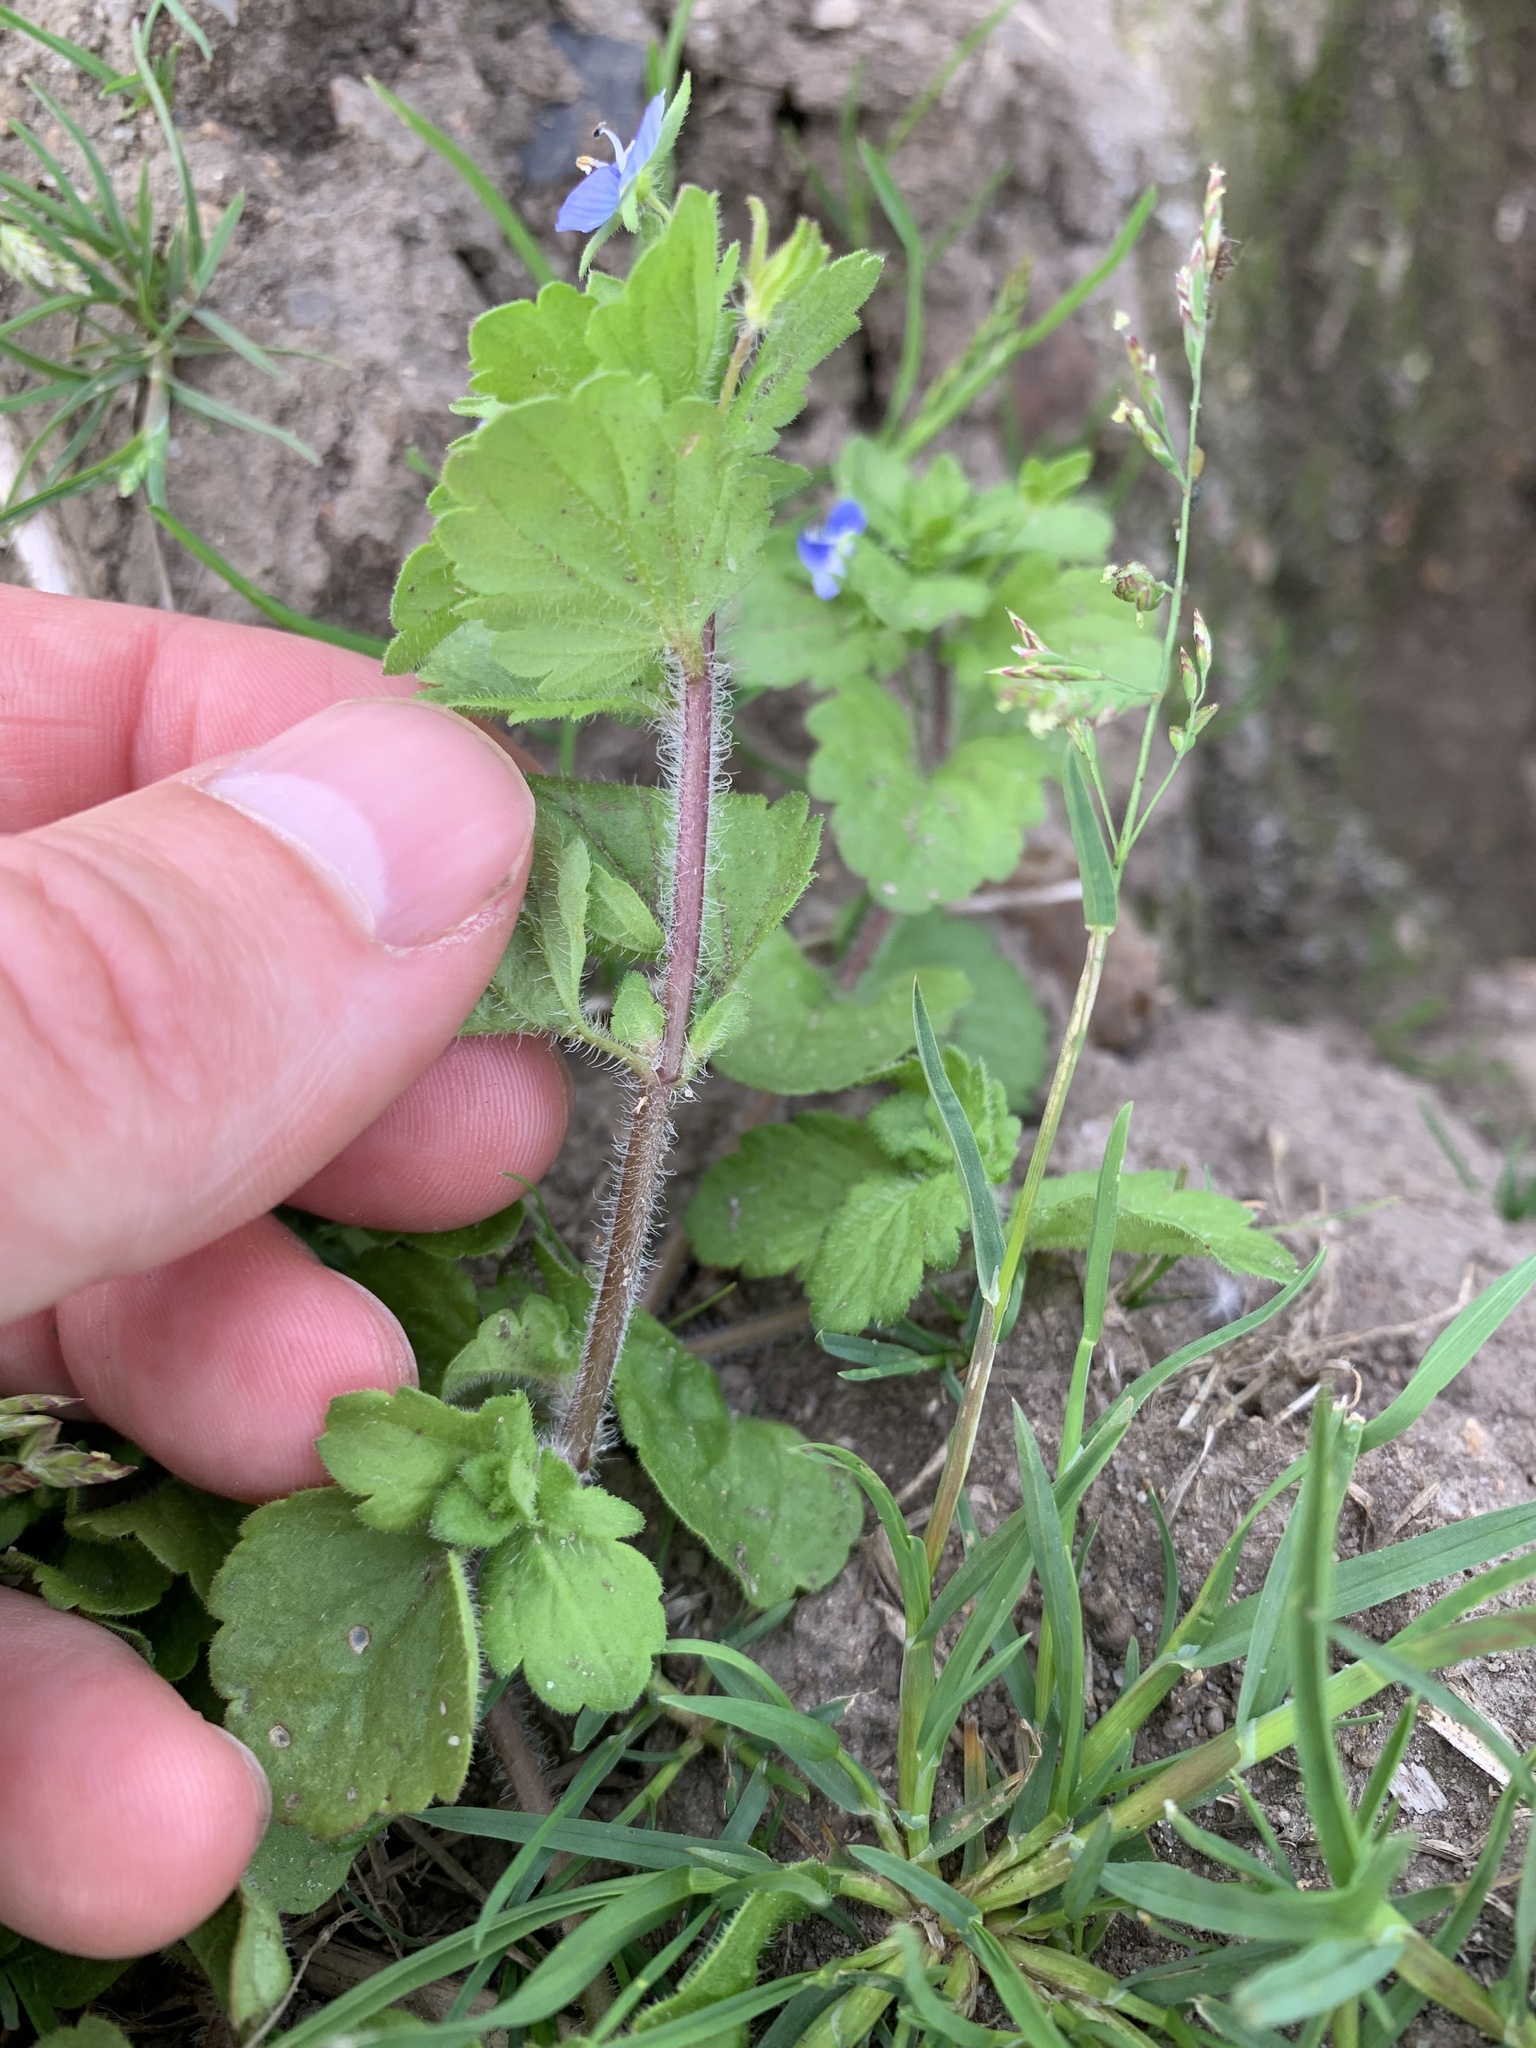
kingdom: Plantae
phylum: Tracheophyta
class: Magnoliopsida
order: Lamiales
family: Plantaginaceae
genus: Veronica
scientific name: Veronica persica
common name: Common field-speedwell
